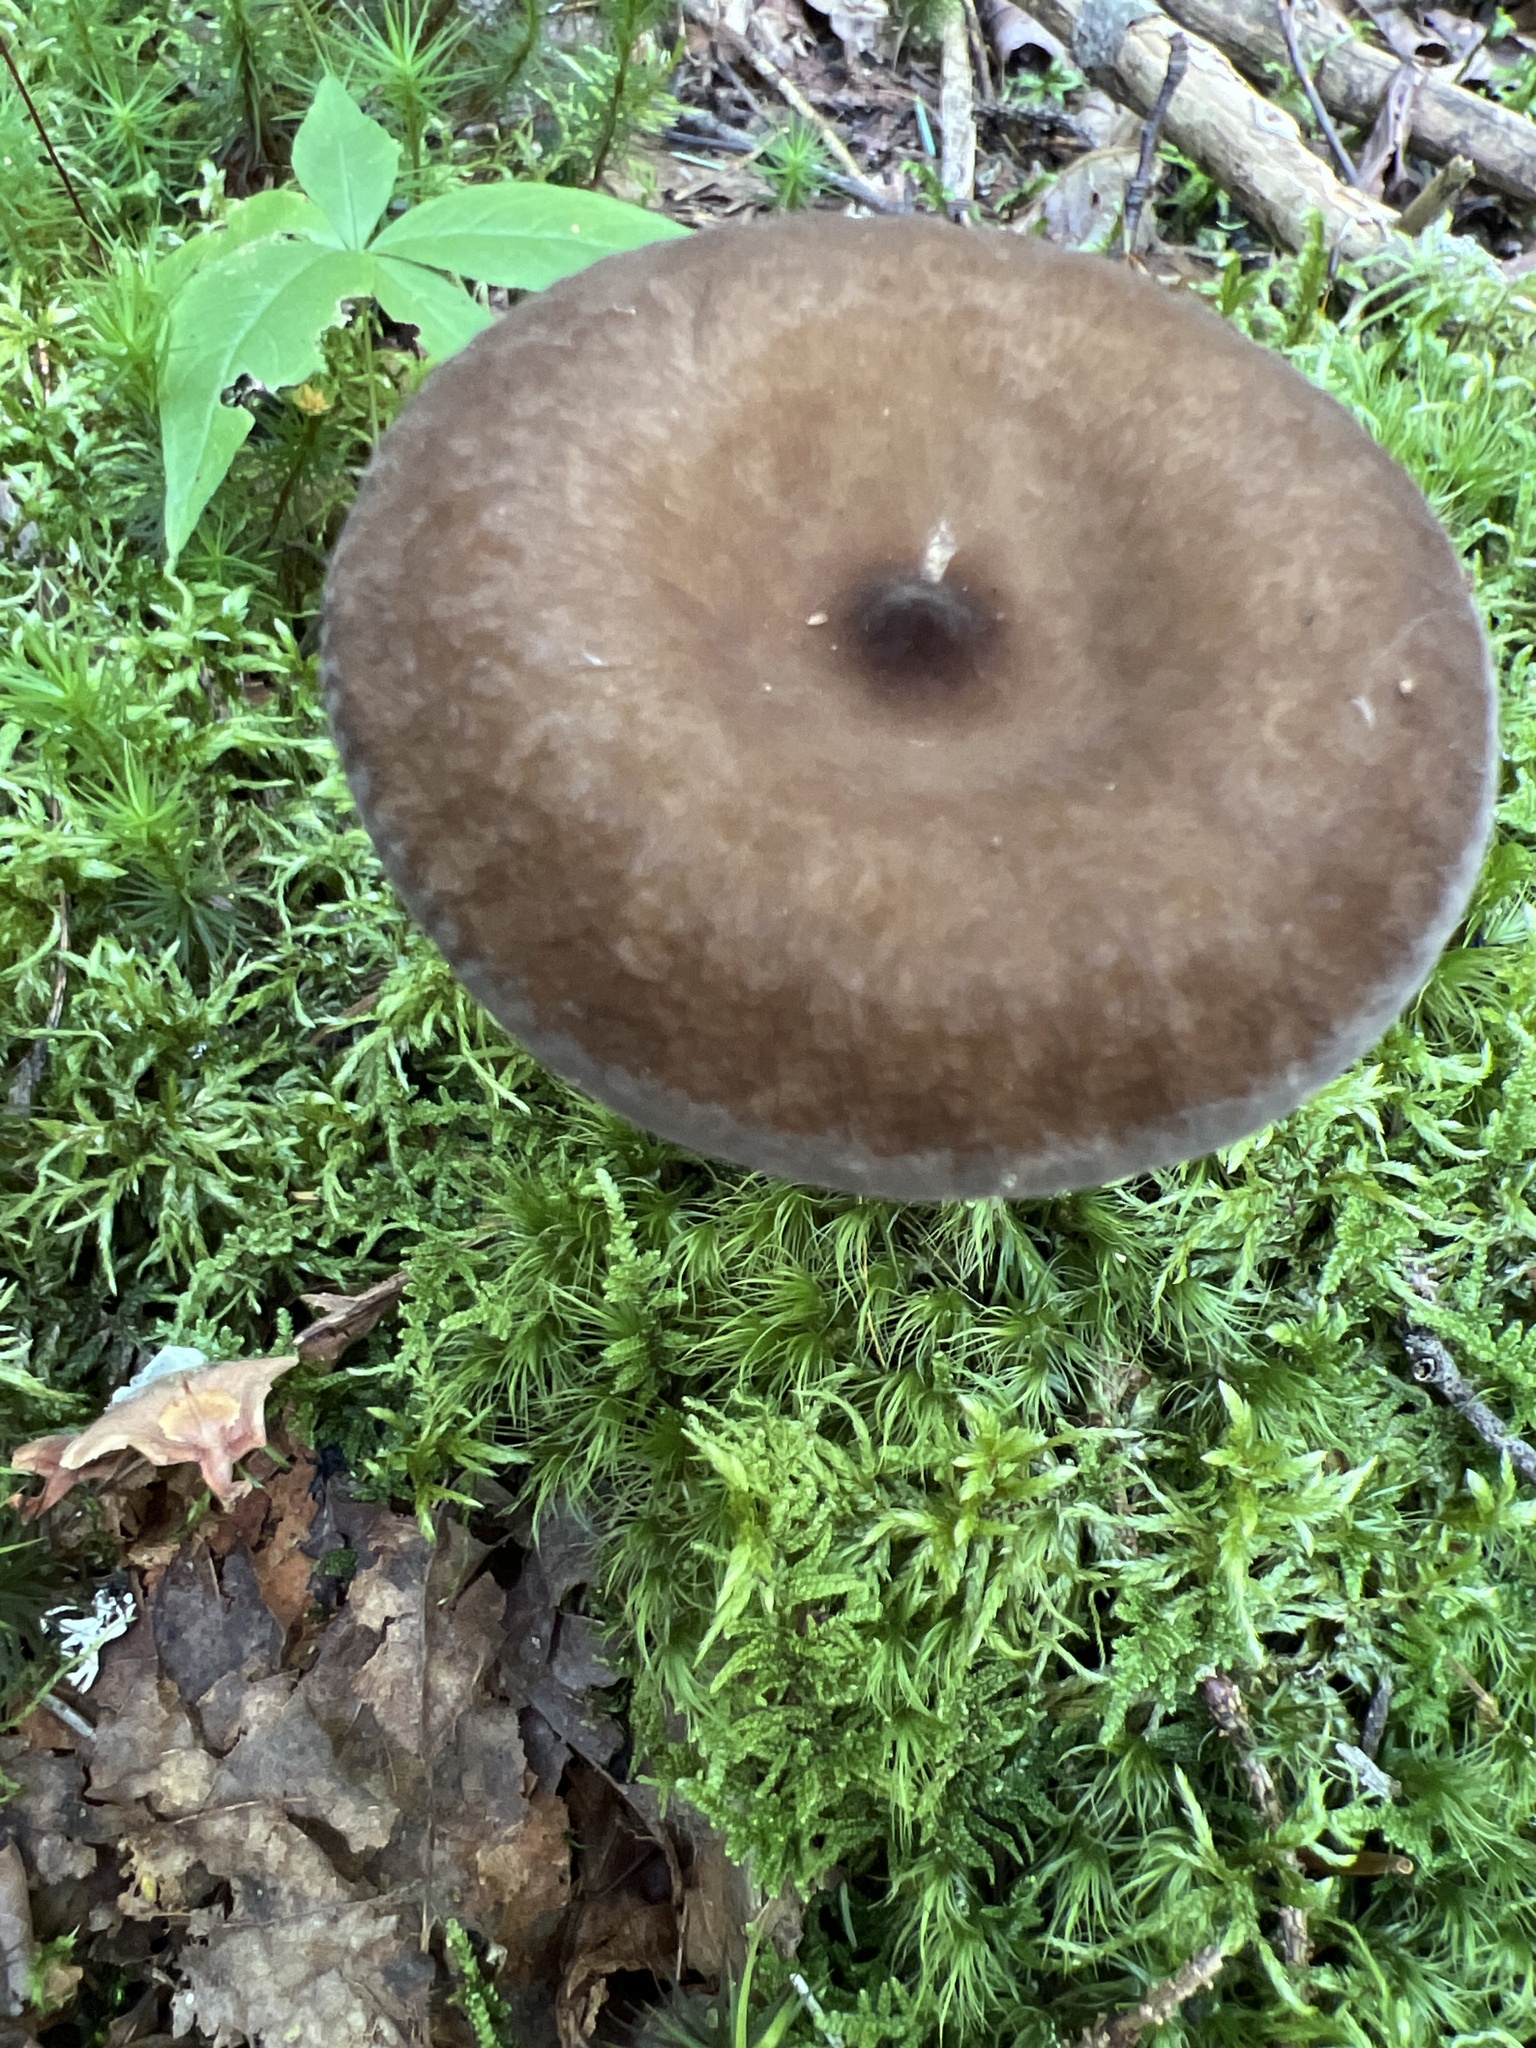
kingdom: Fungi
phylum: Basidiomycota
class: Agaricomycetes
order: Russulales
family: Russulaceae
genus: Lactarius
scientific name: Lactarius lignyotus
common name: Velvet milkcap
